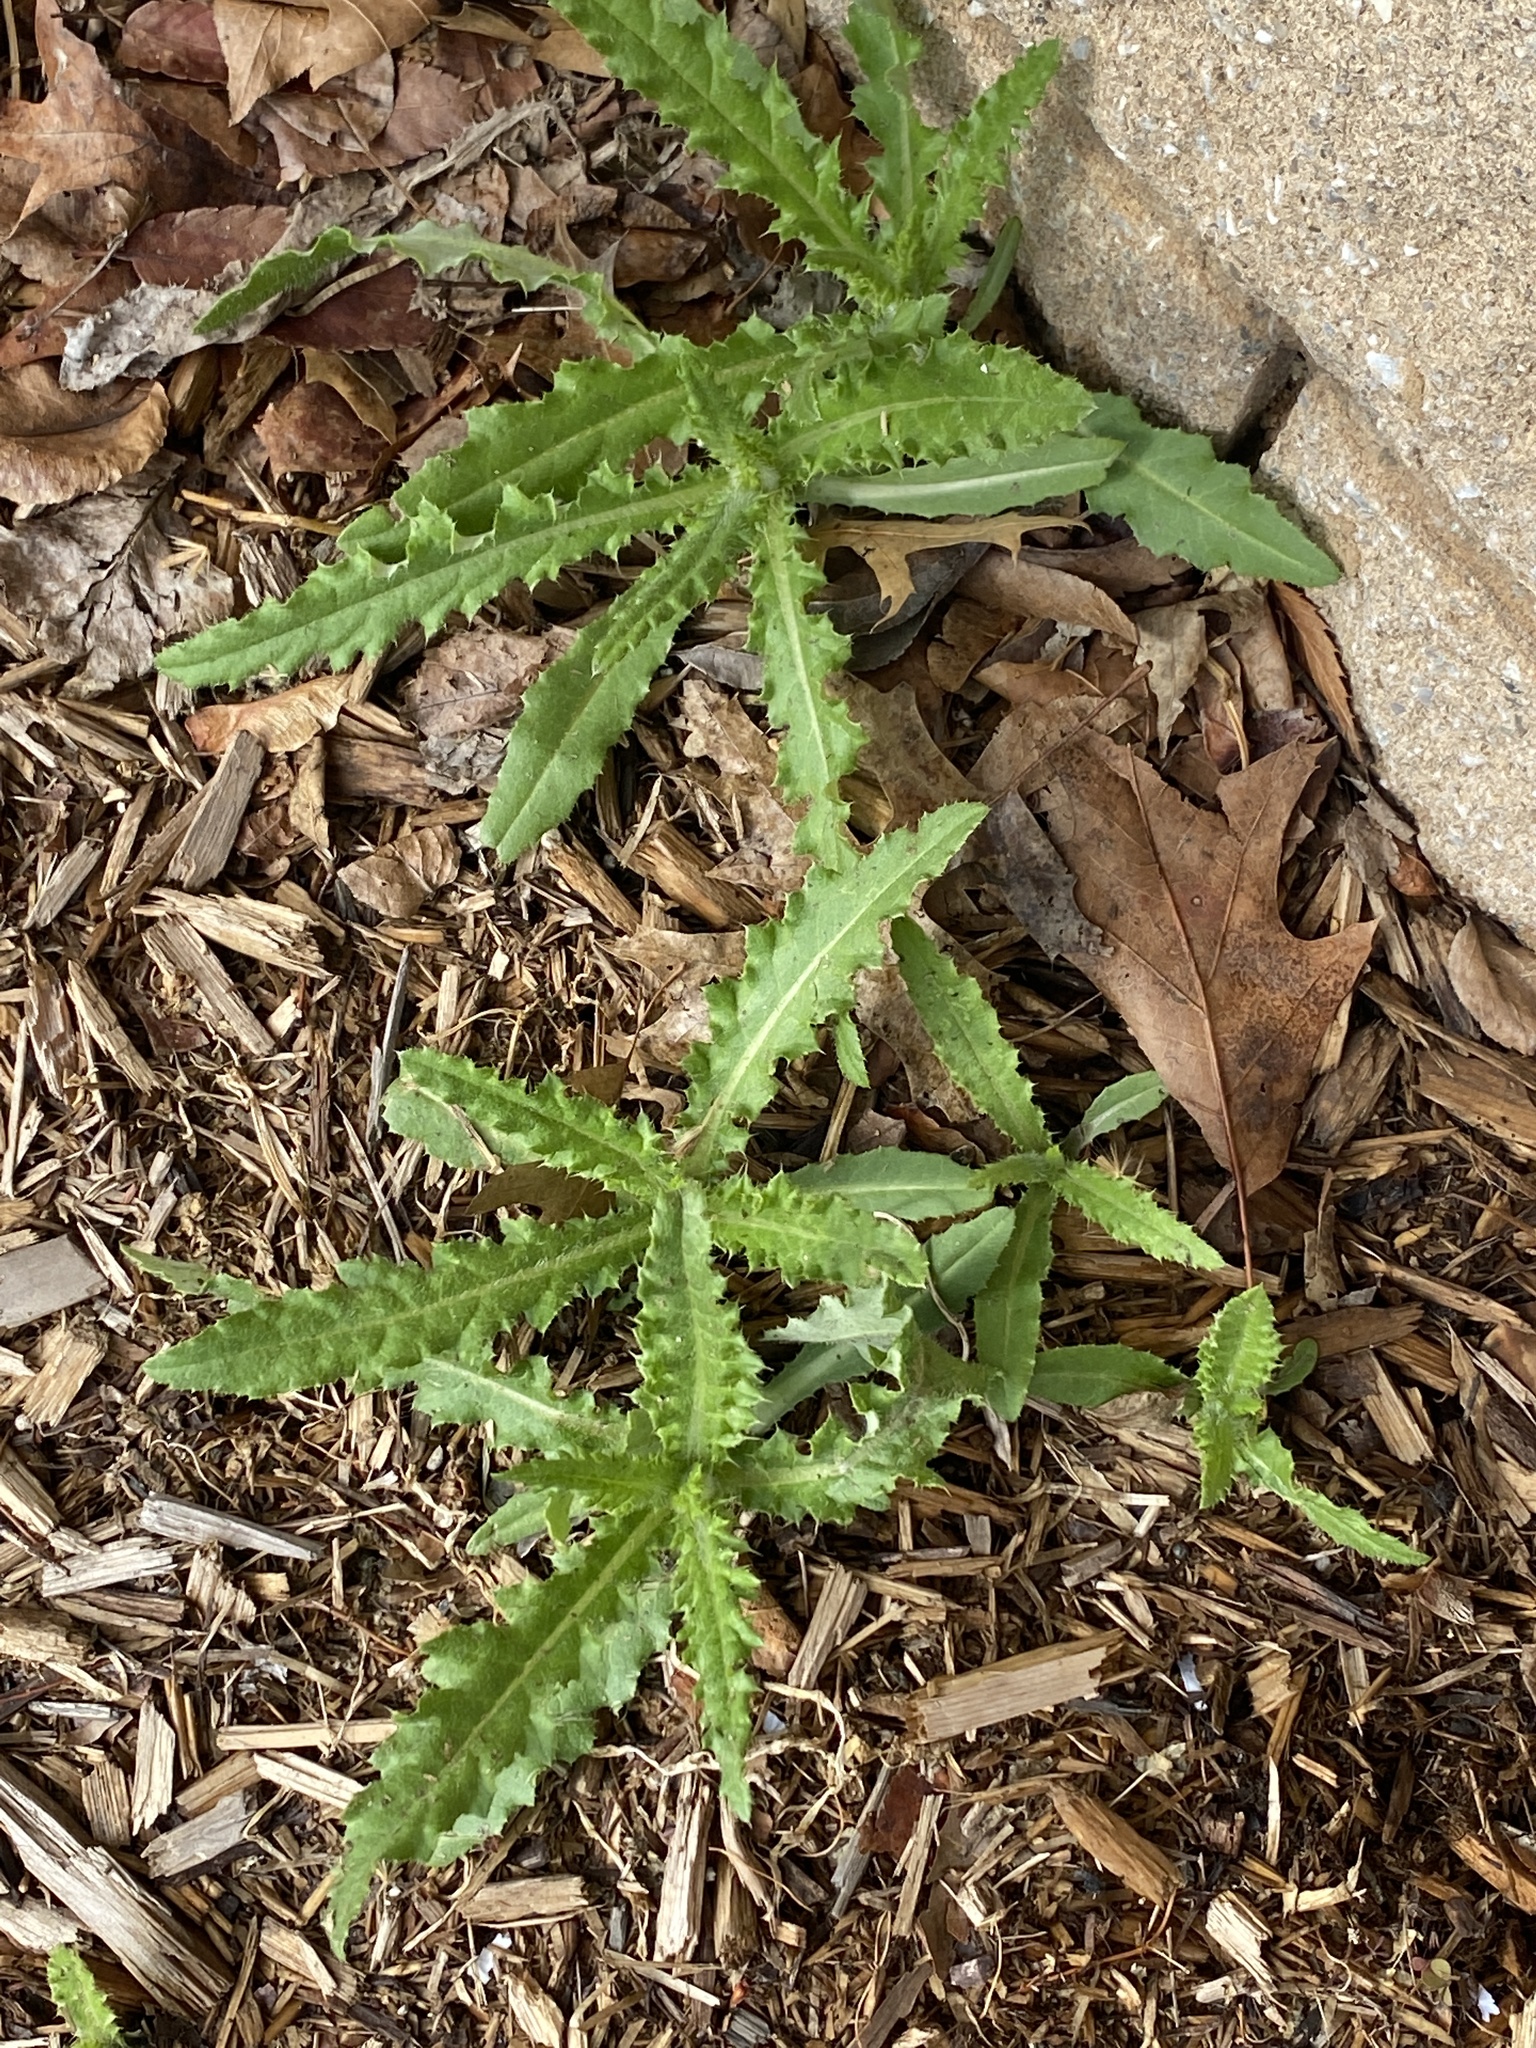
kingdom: Plantae
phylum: Tracheophyta
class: Magnoliopsida
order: Asterales
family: Asteraceae
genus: Cirsium
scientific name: Cirsium arvense
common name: Creeping thistle
